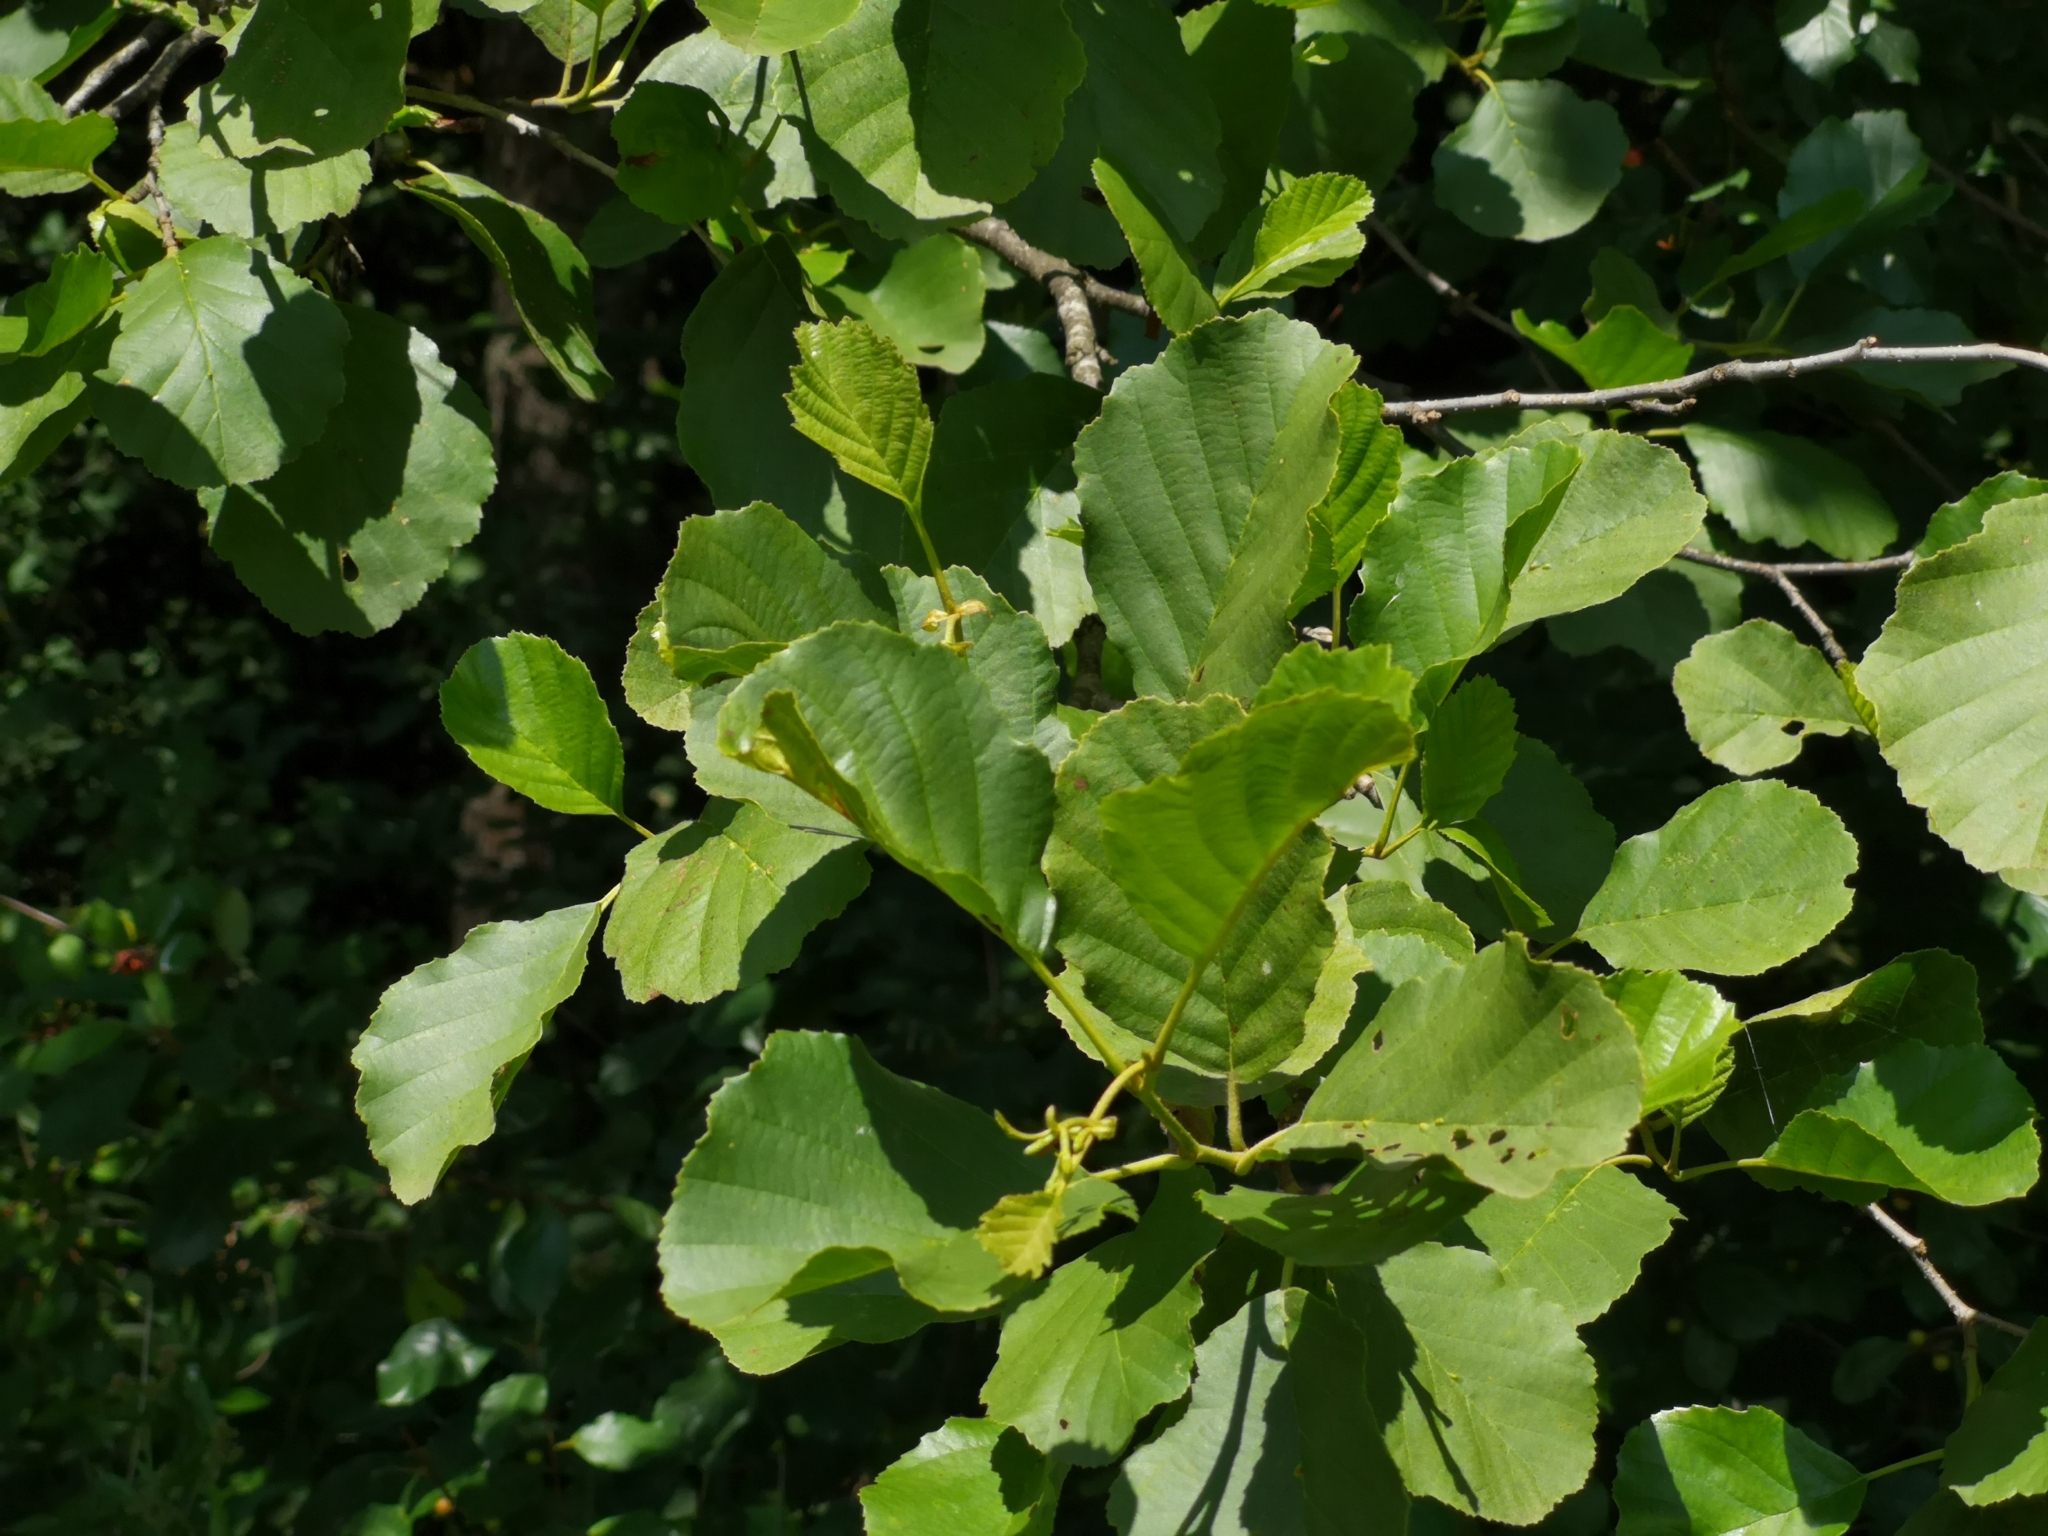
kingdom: Plantae
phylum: Tracheophyta
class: Magnoliopsida
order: Fagales
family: Betulaceae
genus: Alnus
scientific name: Alnus glutinosa
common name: Black alder
